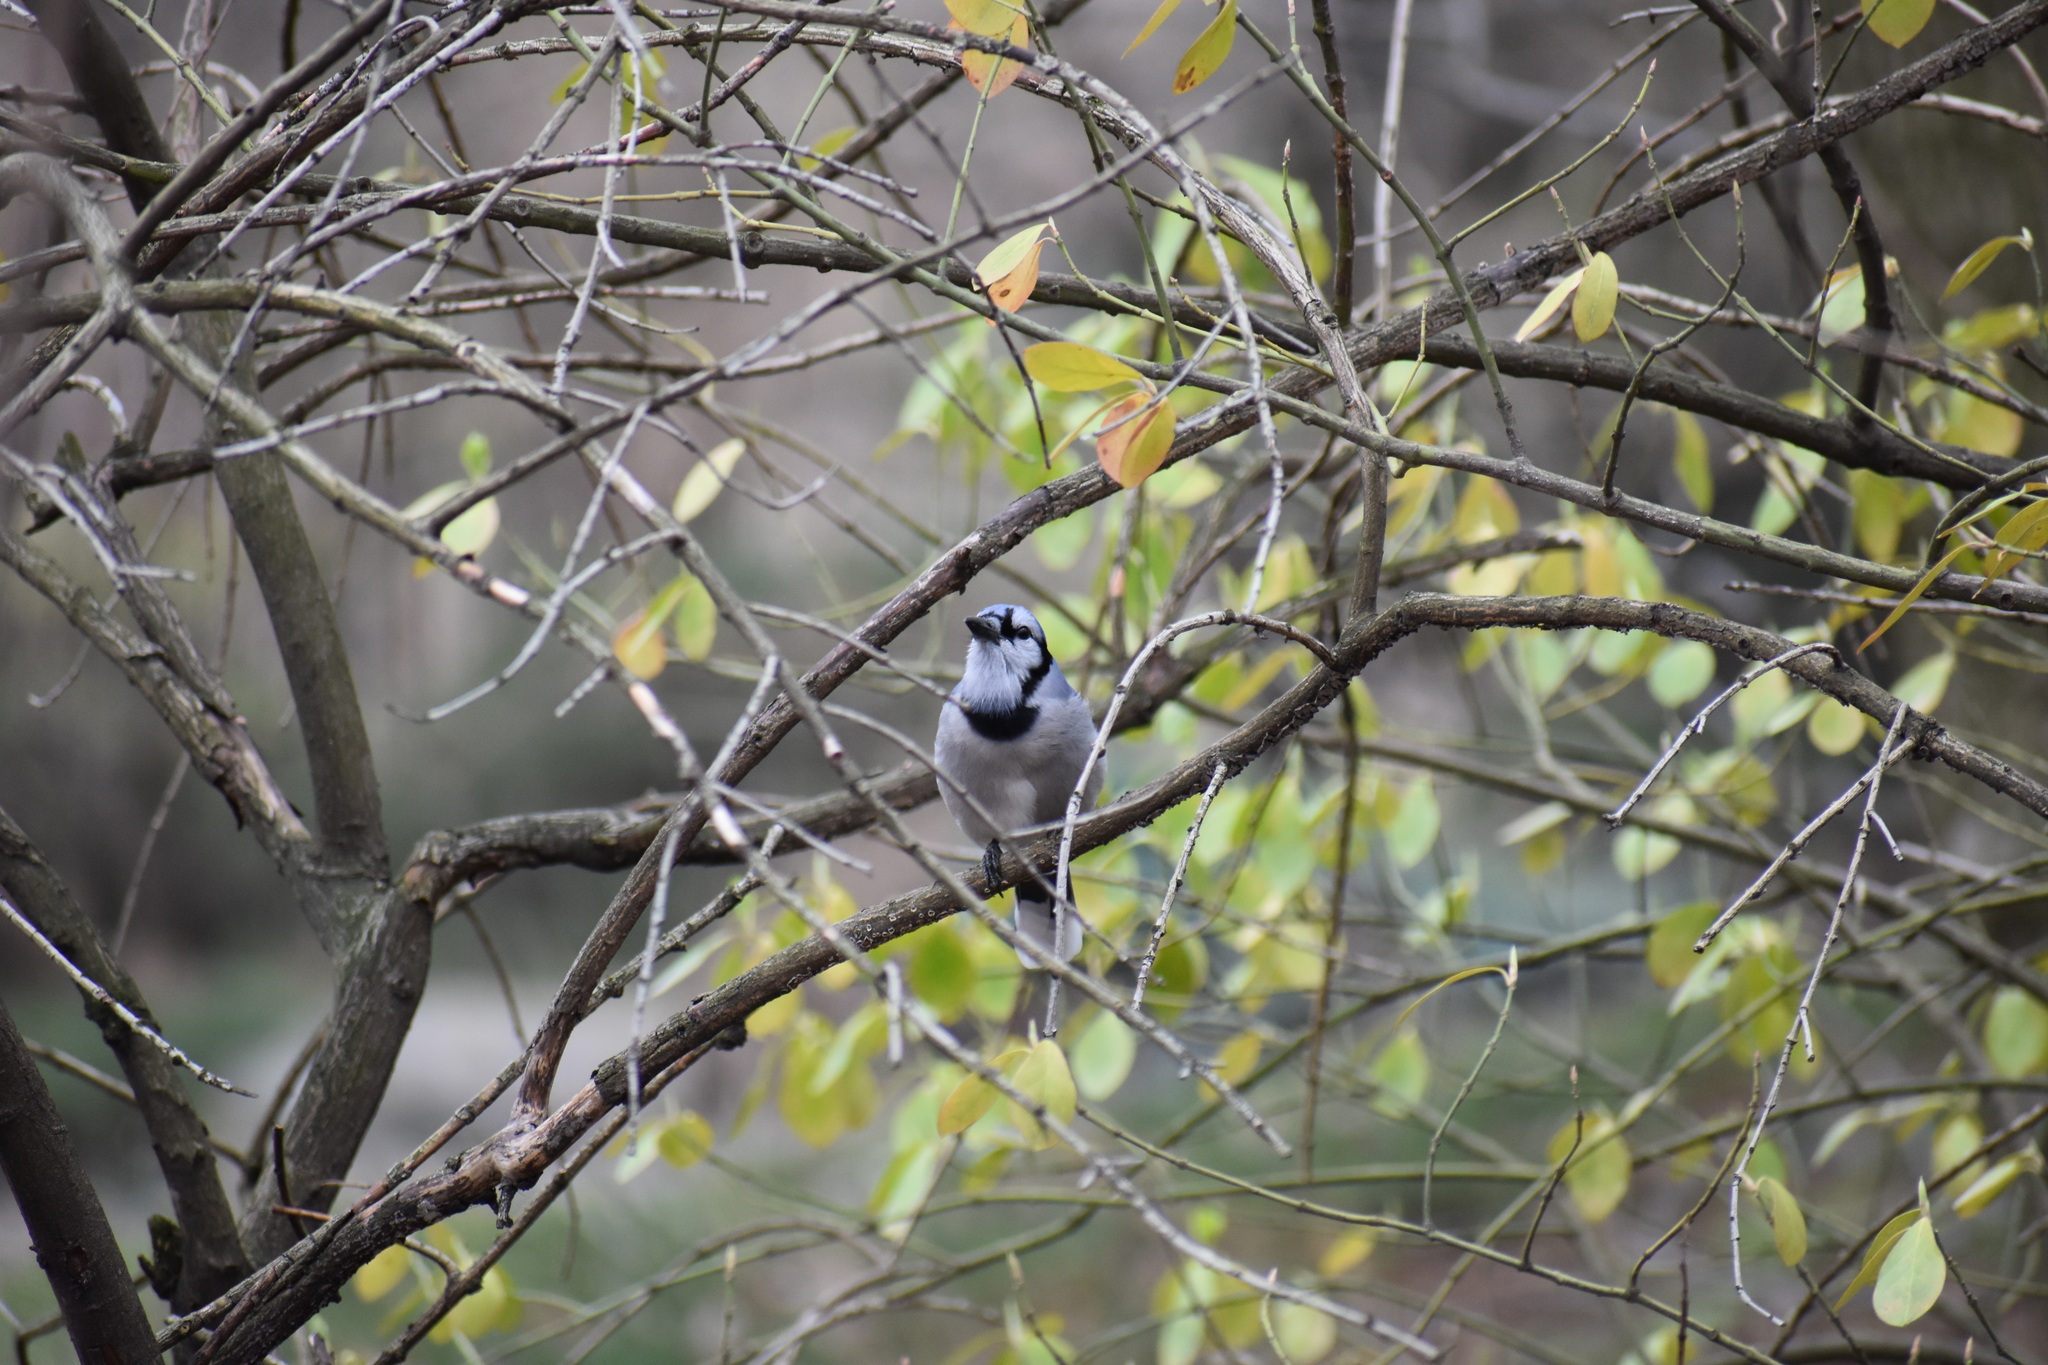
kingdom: Animalia
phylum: Chordata
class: Aves
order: Passeriformes
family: Corvidae
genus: Cyanocitta
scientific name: Cyanocitta cristata
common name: Blue jay
